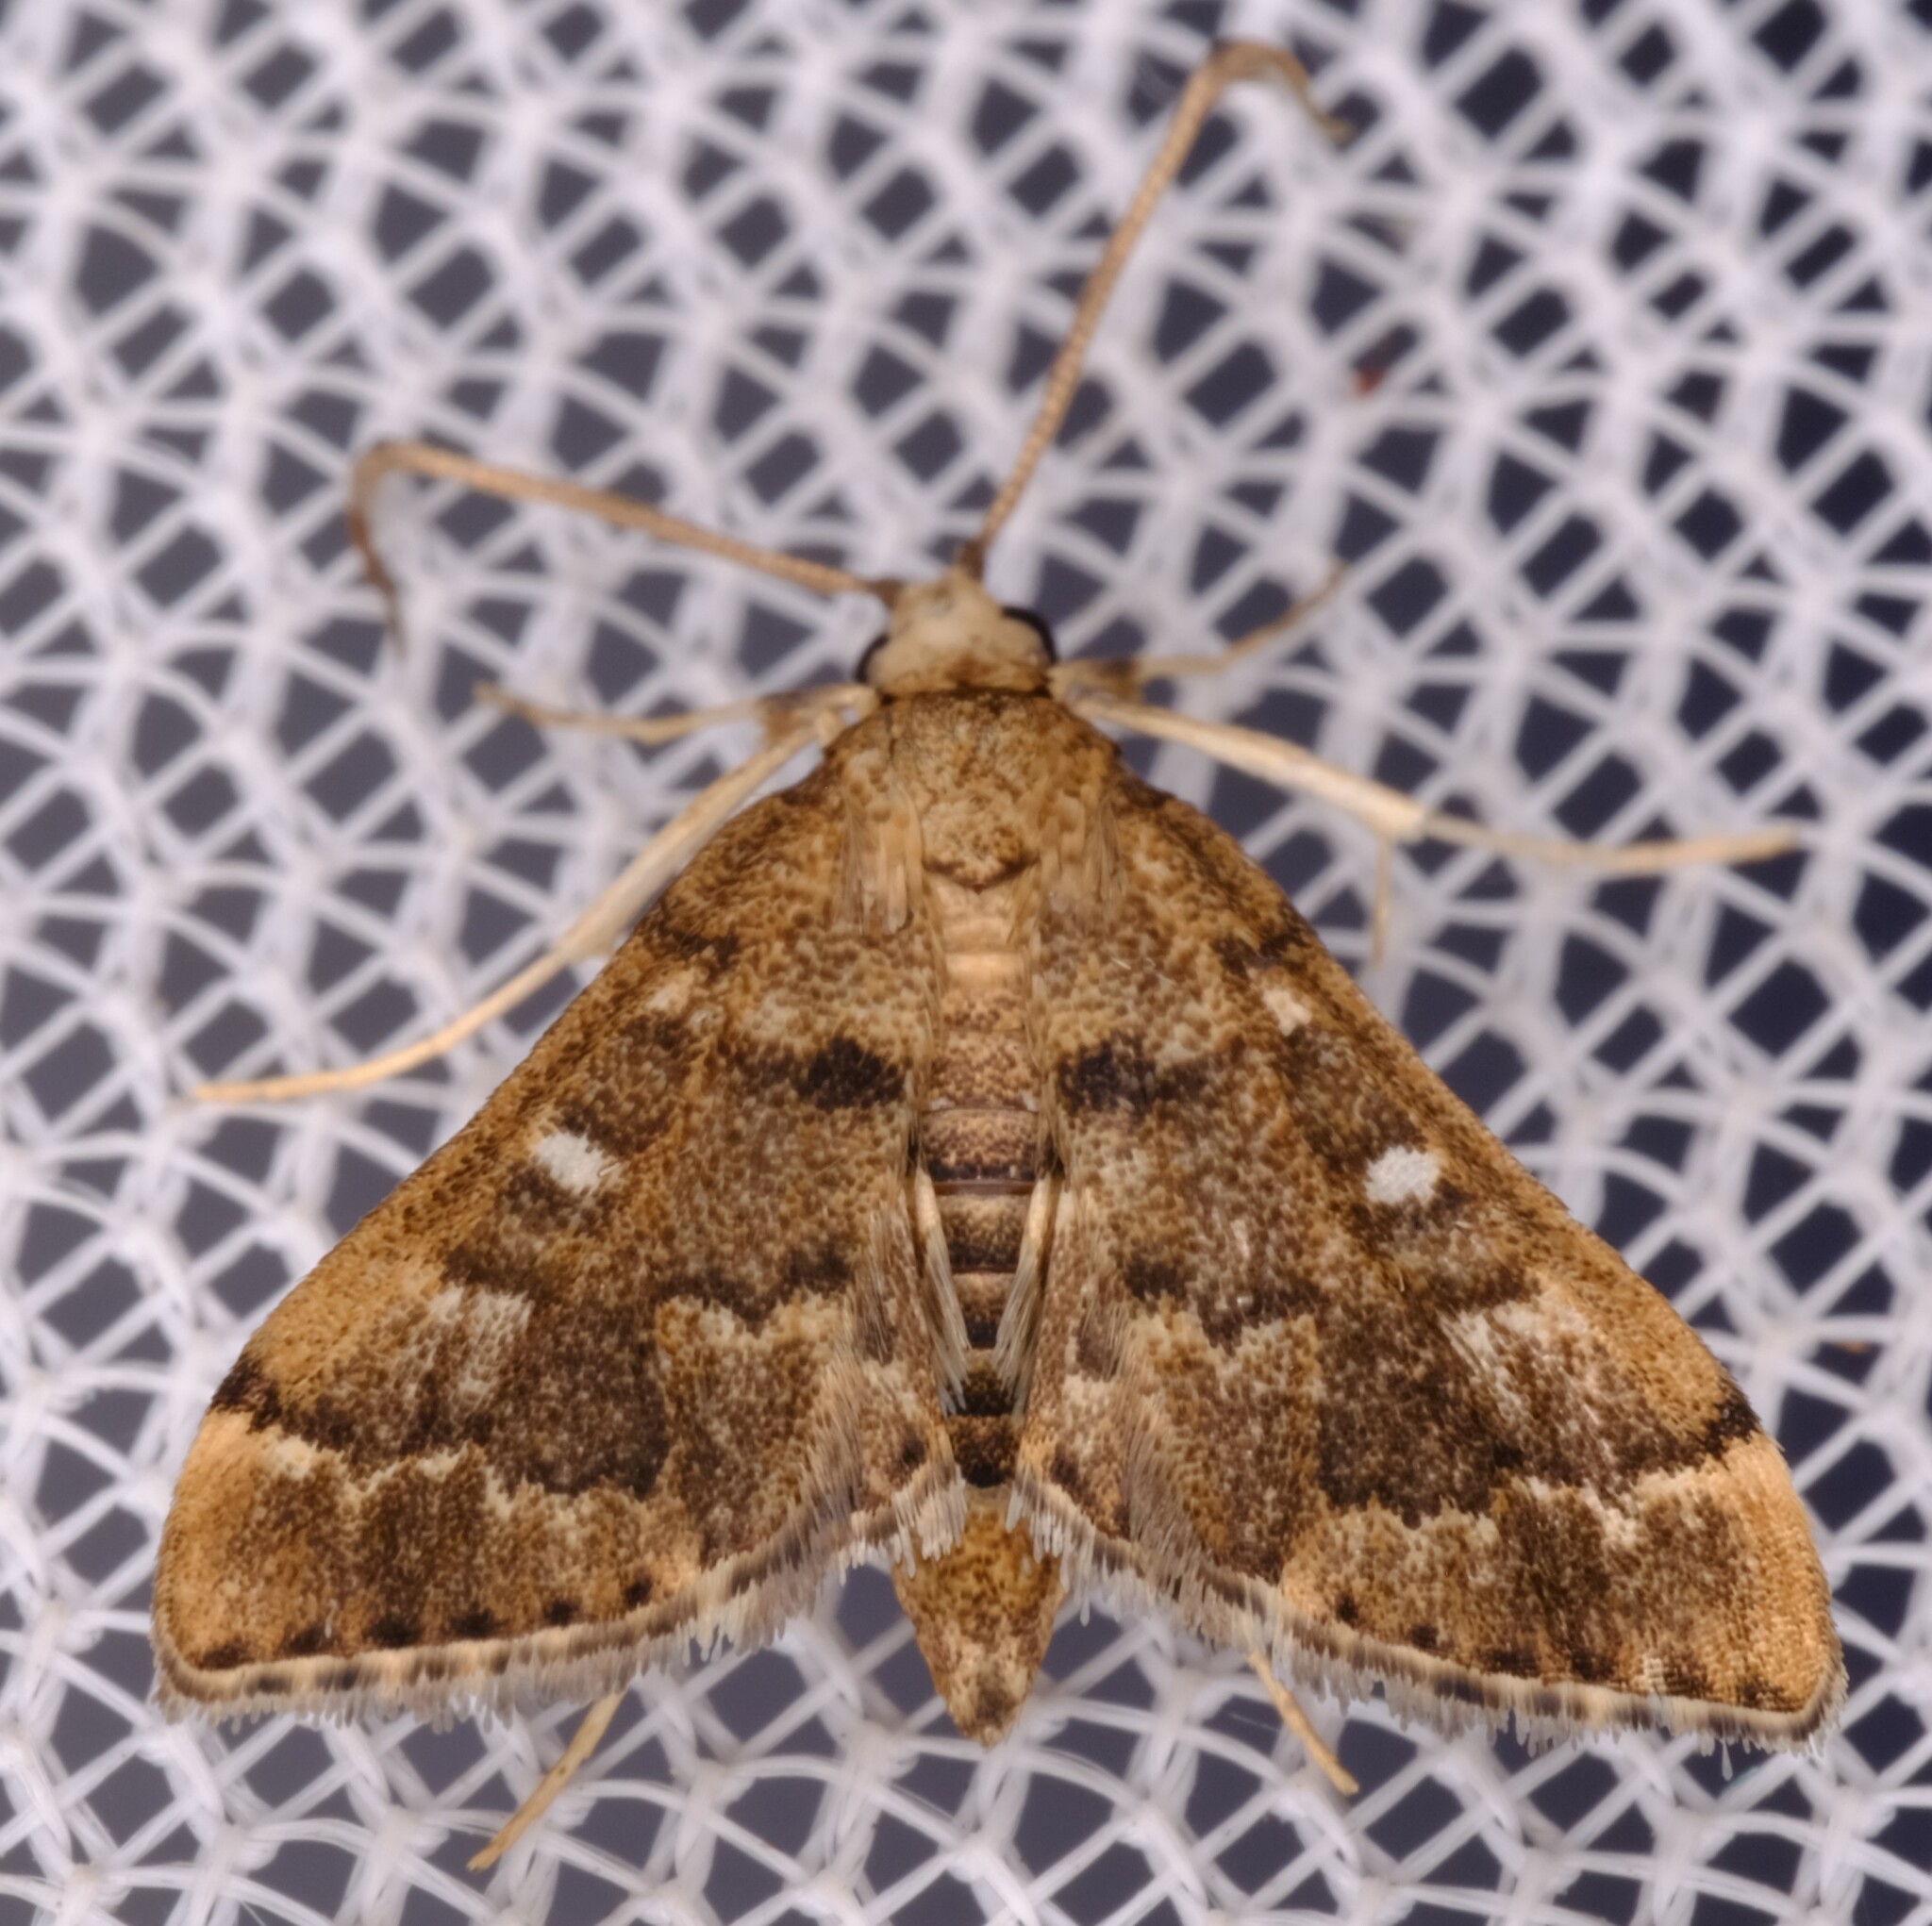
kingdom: Animalia
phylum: Arthropoda
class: Insecta
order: Lepidoptera
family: Crambidae
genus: Nacoleia
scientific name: Nacoleia rhoeoalis
